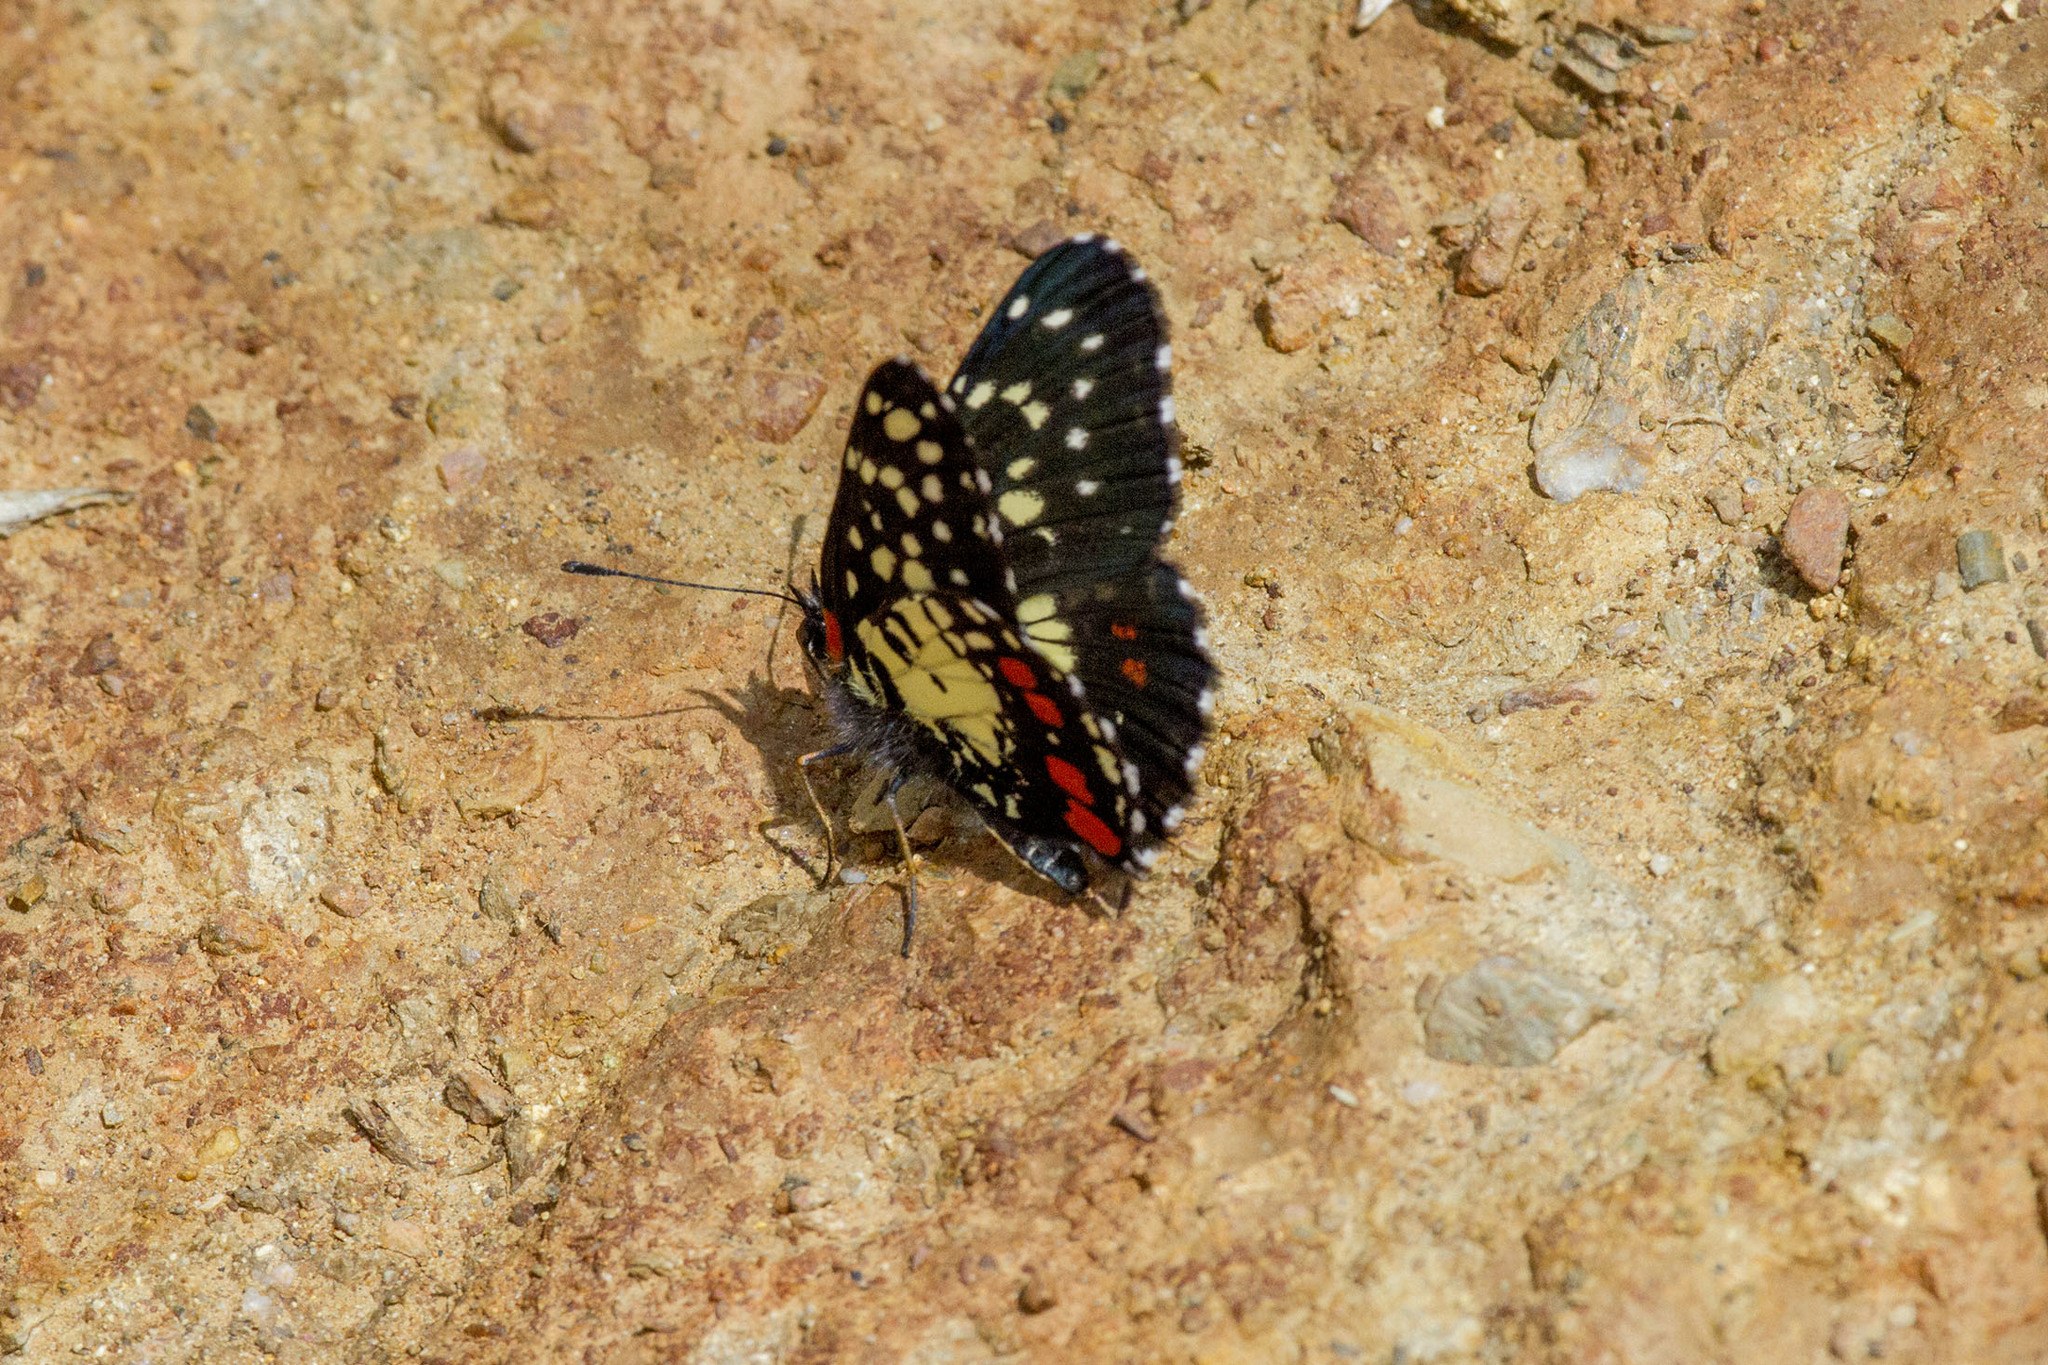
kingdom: Animalia
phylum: Arthropoda
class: Insecta
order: Lepidoptera
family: Nymphalidae
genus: Chlosyne
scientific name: Chlosyne erodyle
